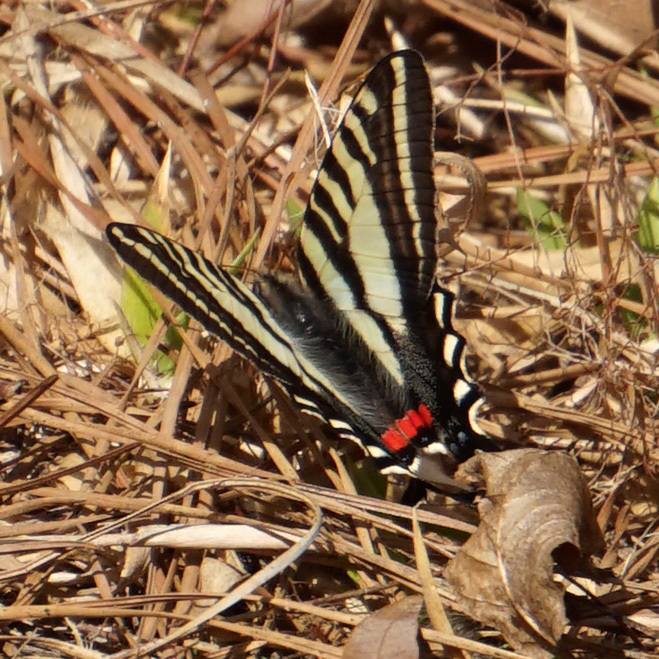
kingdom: Animalia
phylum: Arthropoda
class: Insecta
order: Lepidoptera
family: Papilionidae
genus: Protographium
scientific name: Protographium marcellus
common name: Zebra swallowtail
